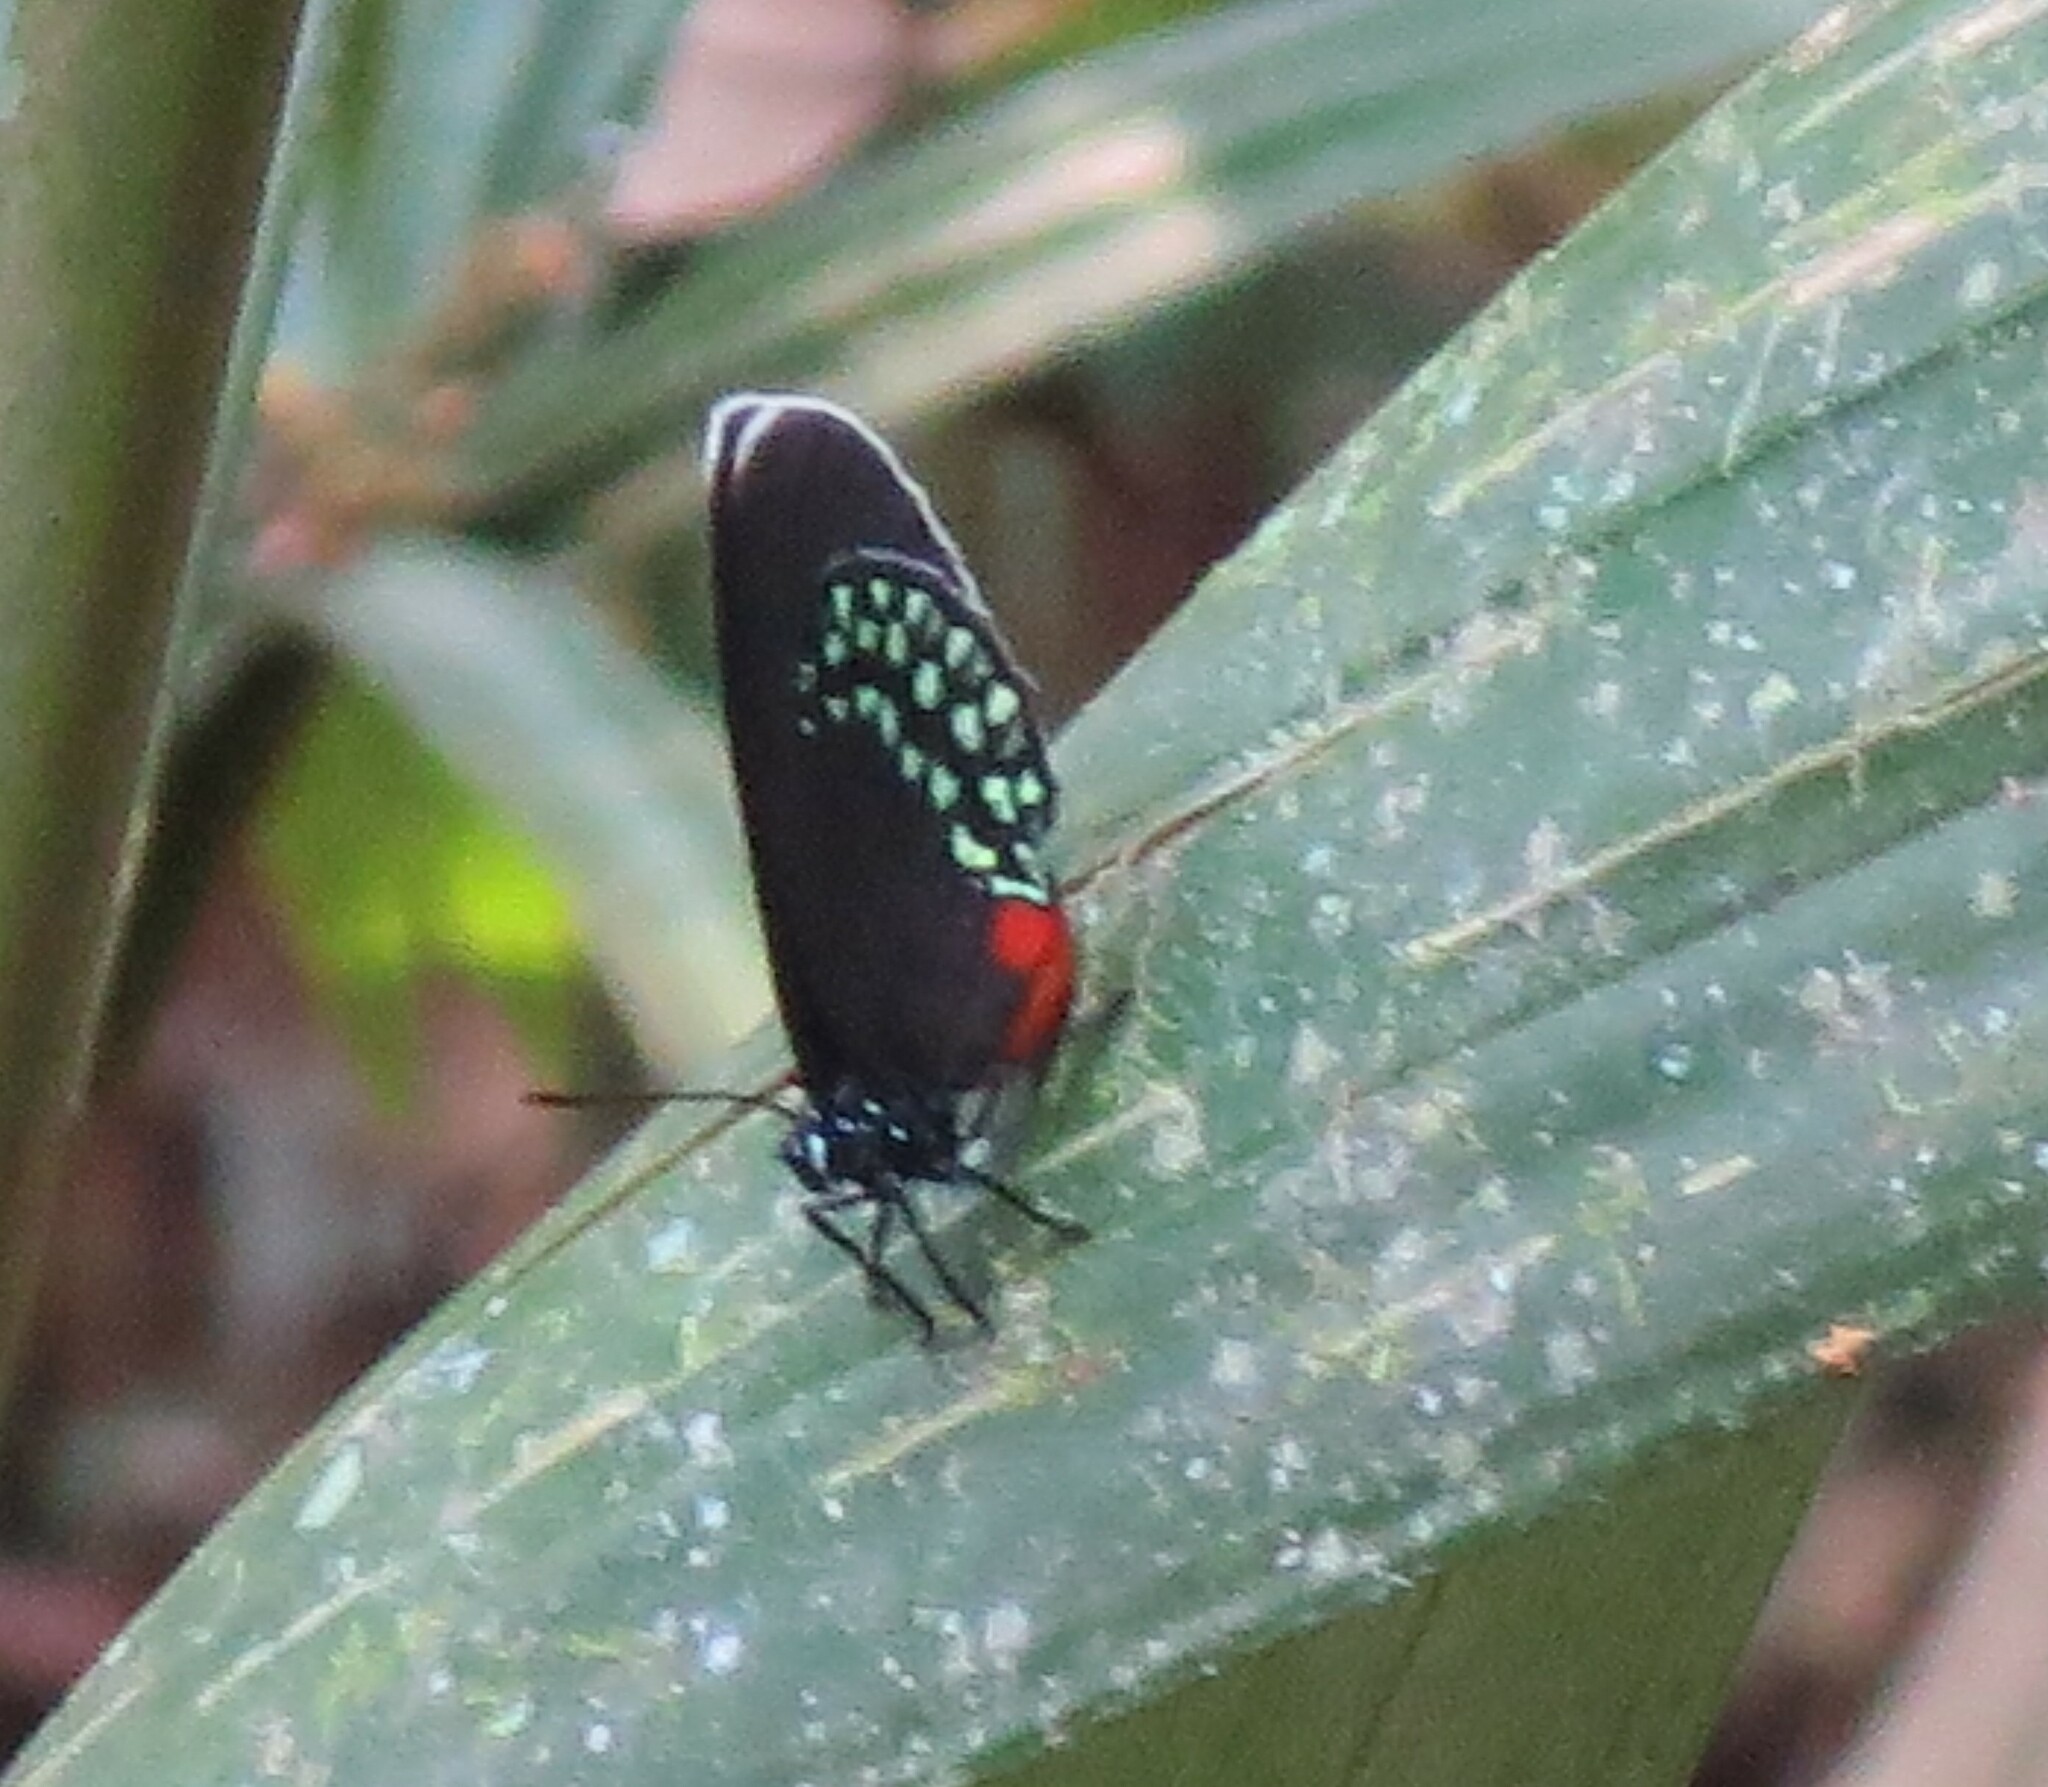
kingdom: Animalia
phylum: Arthropoda
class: Insecta
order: Lepidoptera
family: Lycaenidae
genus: Eumaeus
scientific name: Eumaeus toxea
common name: Mexican cycadian
